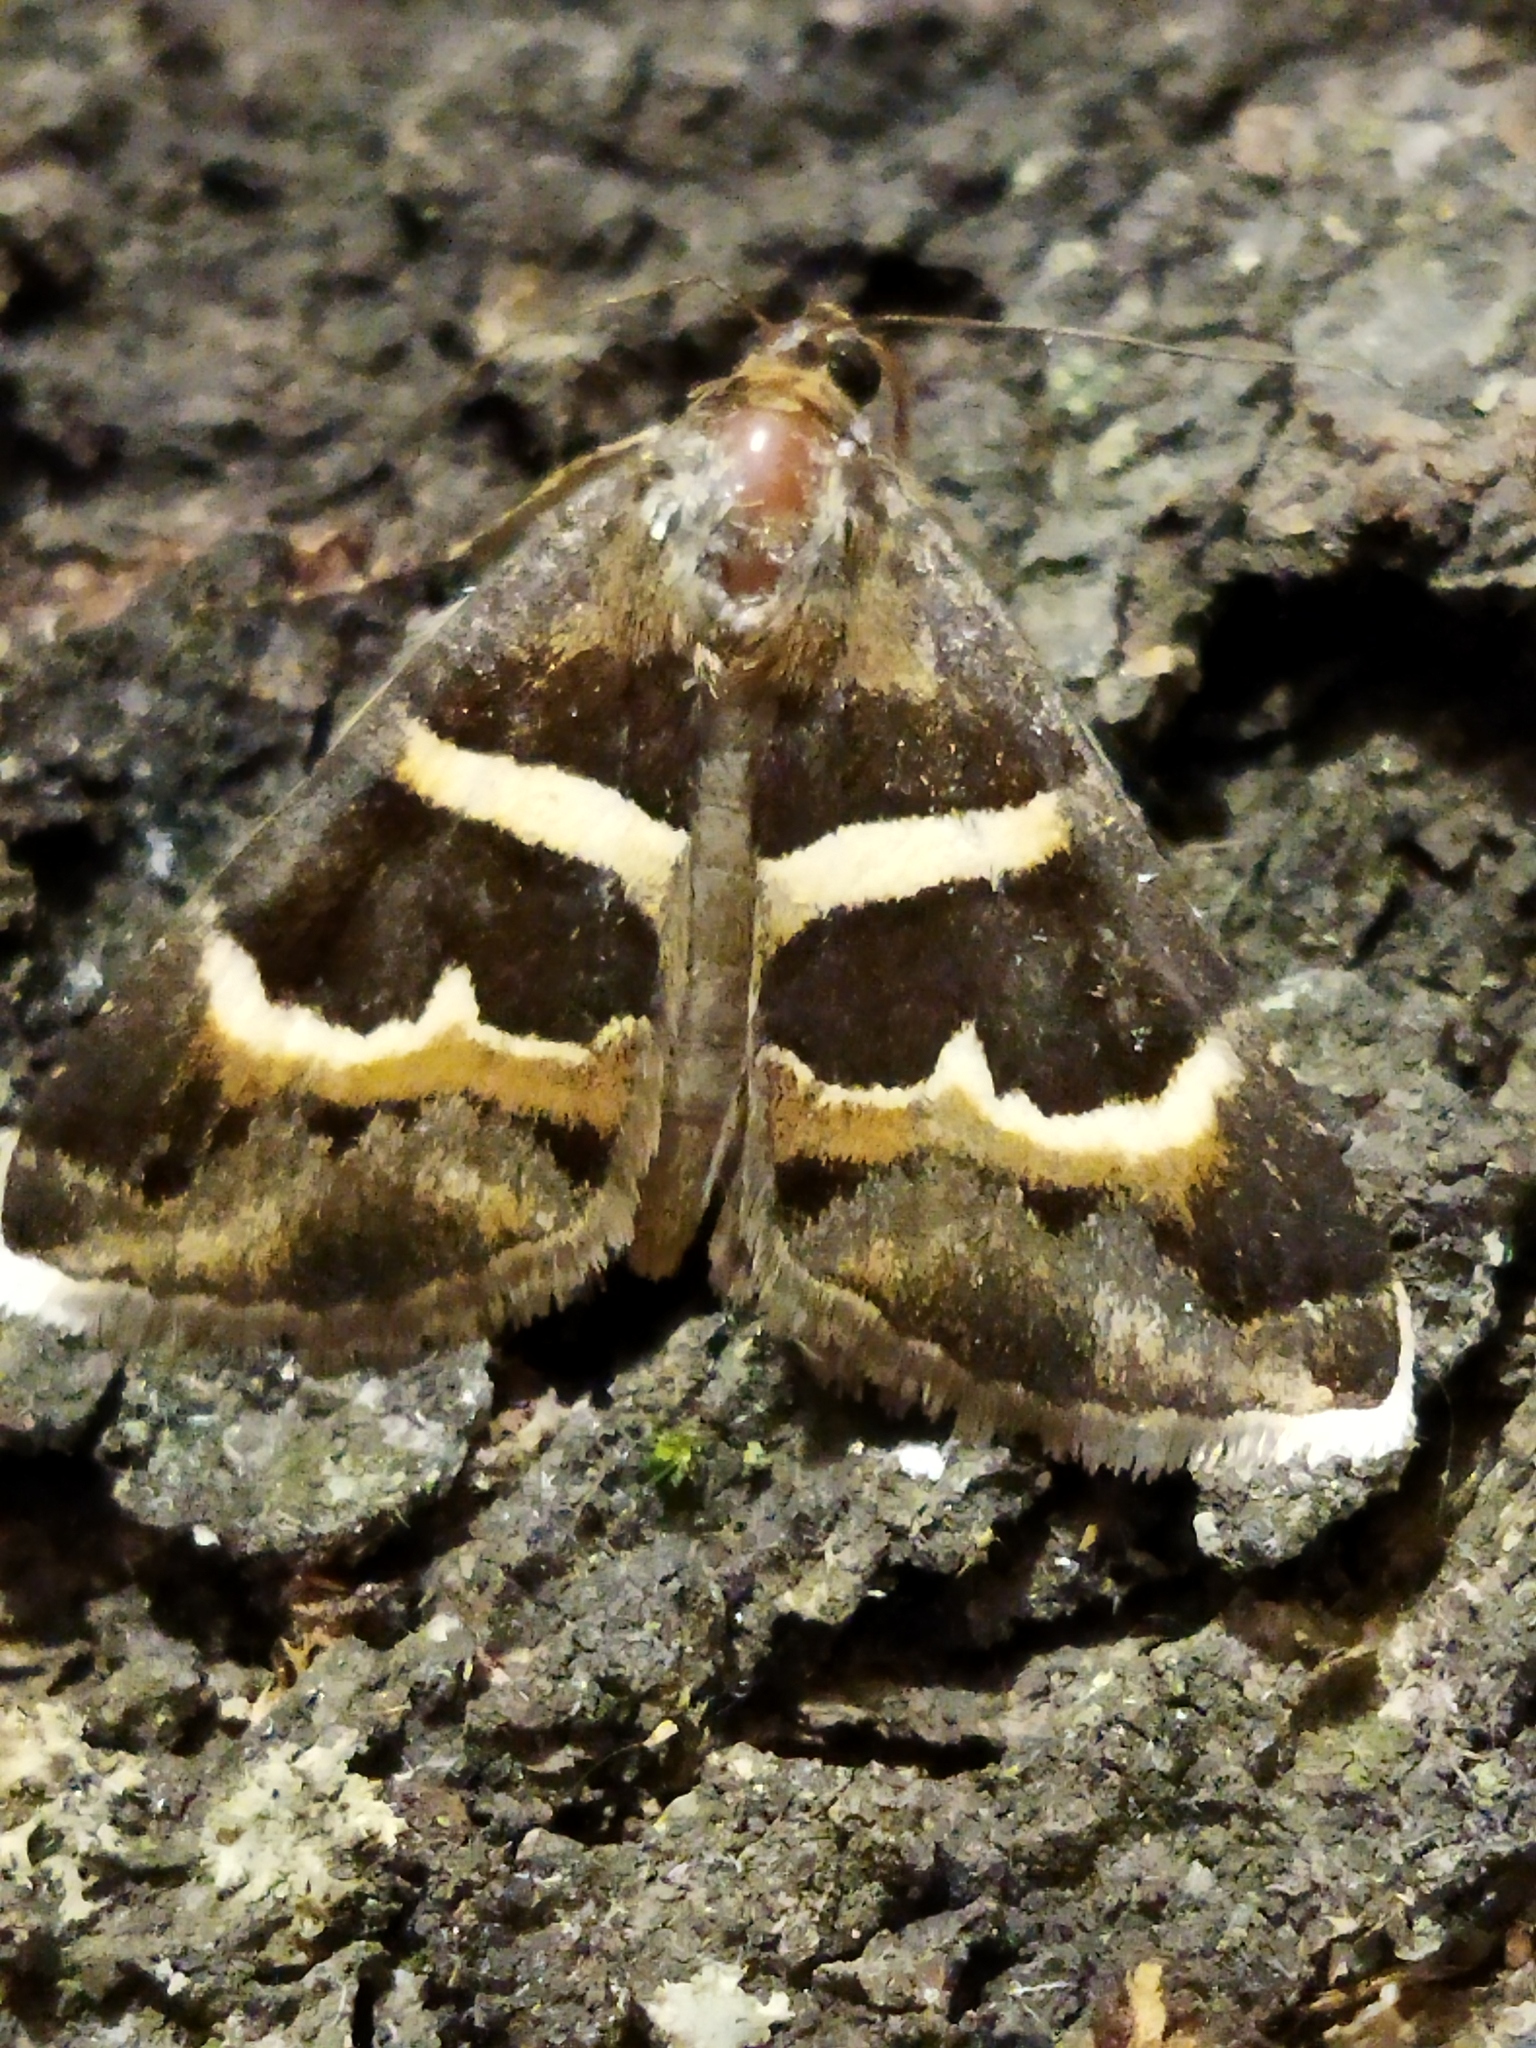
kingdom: Animalia
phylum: Arthropoda
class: Insecta
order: Lepidoptera
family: Erebidae
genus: Grammodes
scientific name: Grammodes stolida
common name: Geometrician
